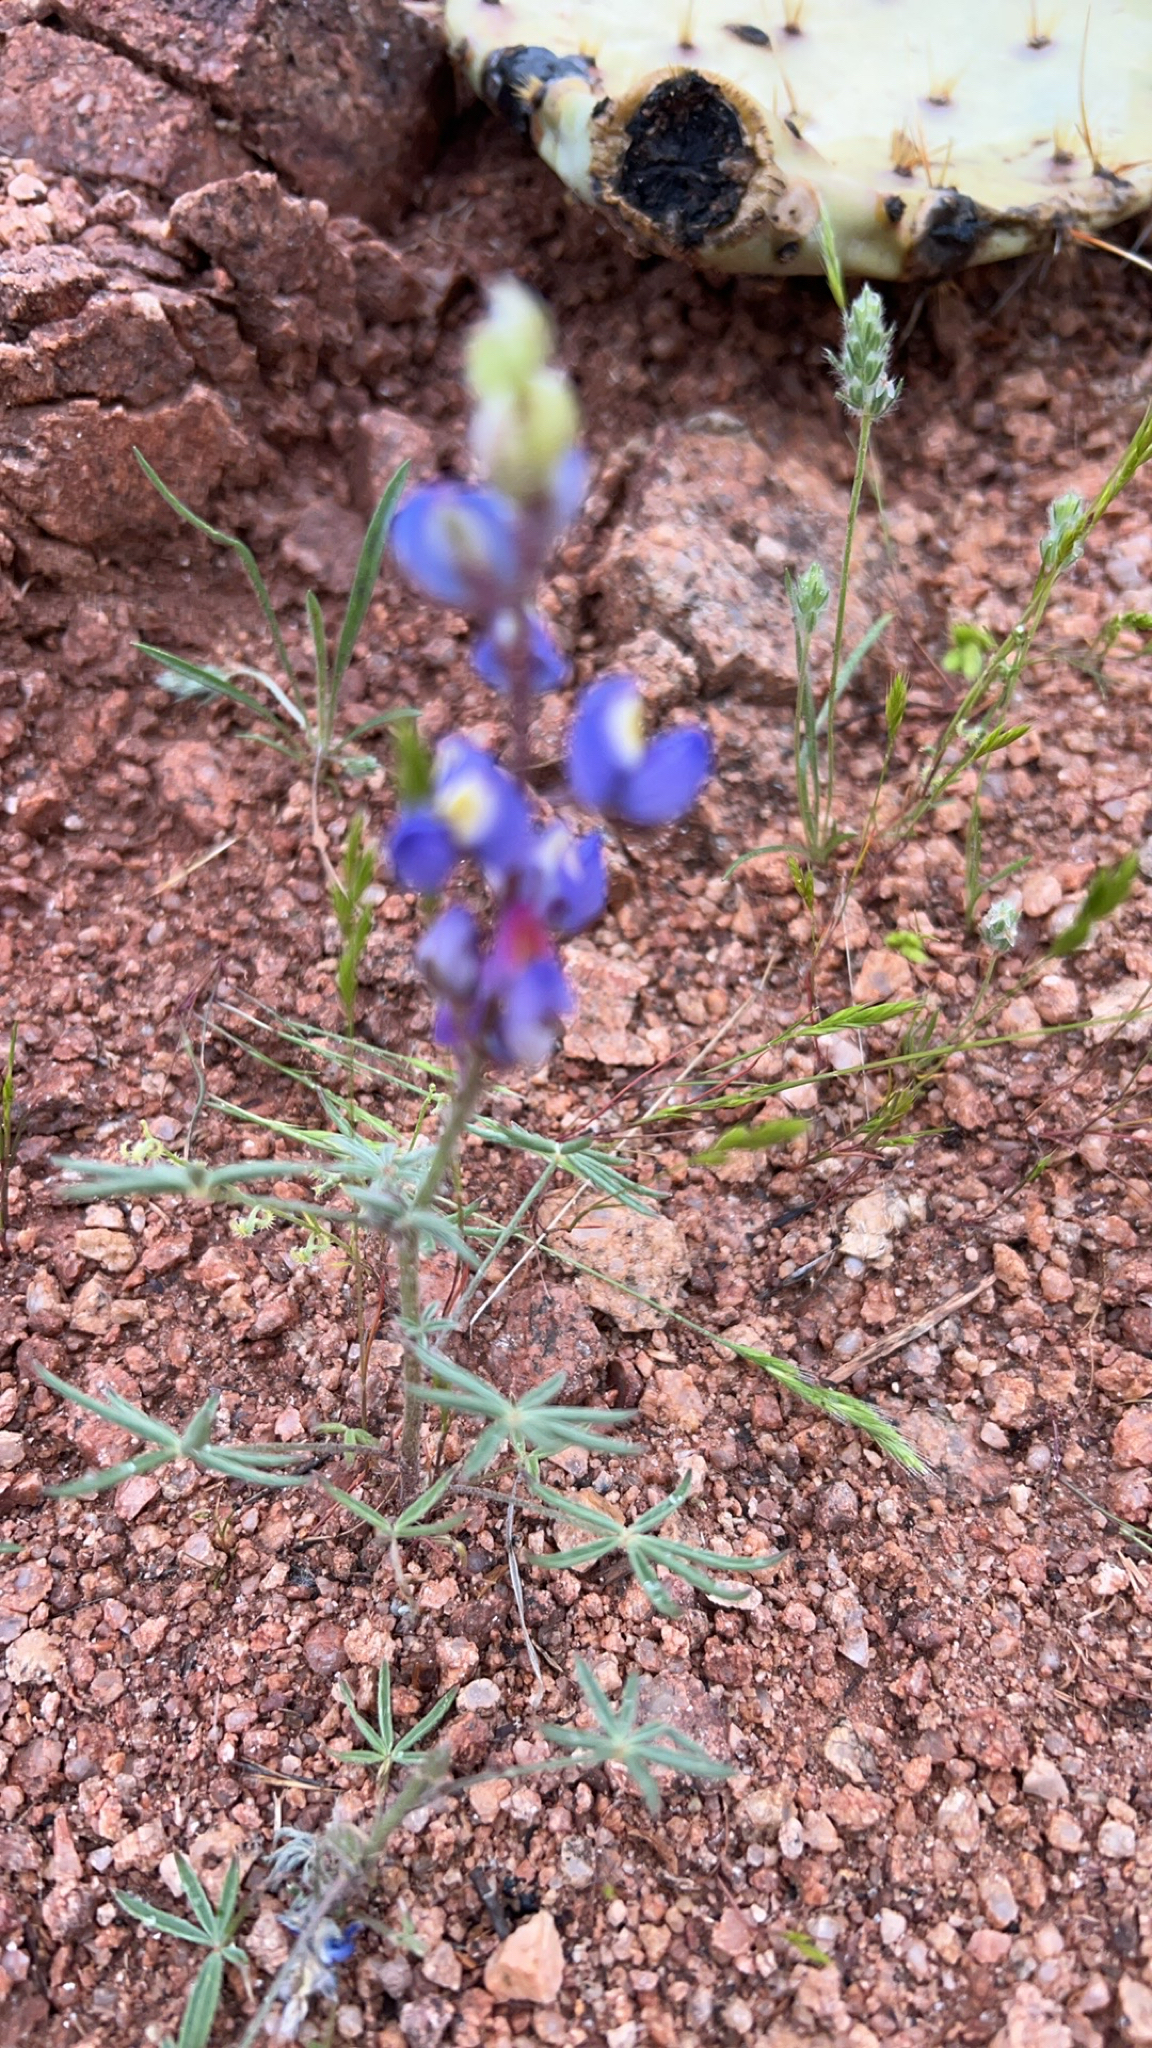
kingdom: Plantae
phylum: Tracheophyta
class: Magnoliopsida
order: Fabales
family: Fabaceae
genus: Lupinus
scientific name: Lupinus sparsiflorus
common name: Coulter's lupine
